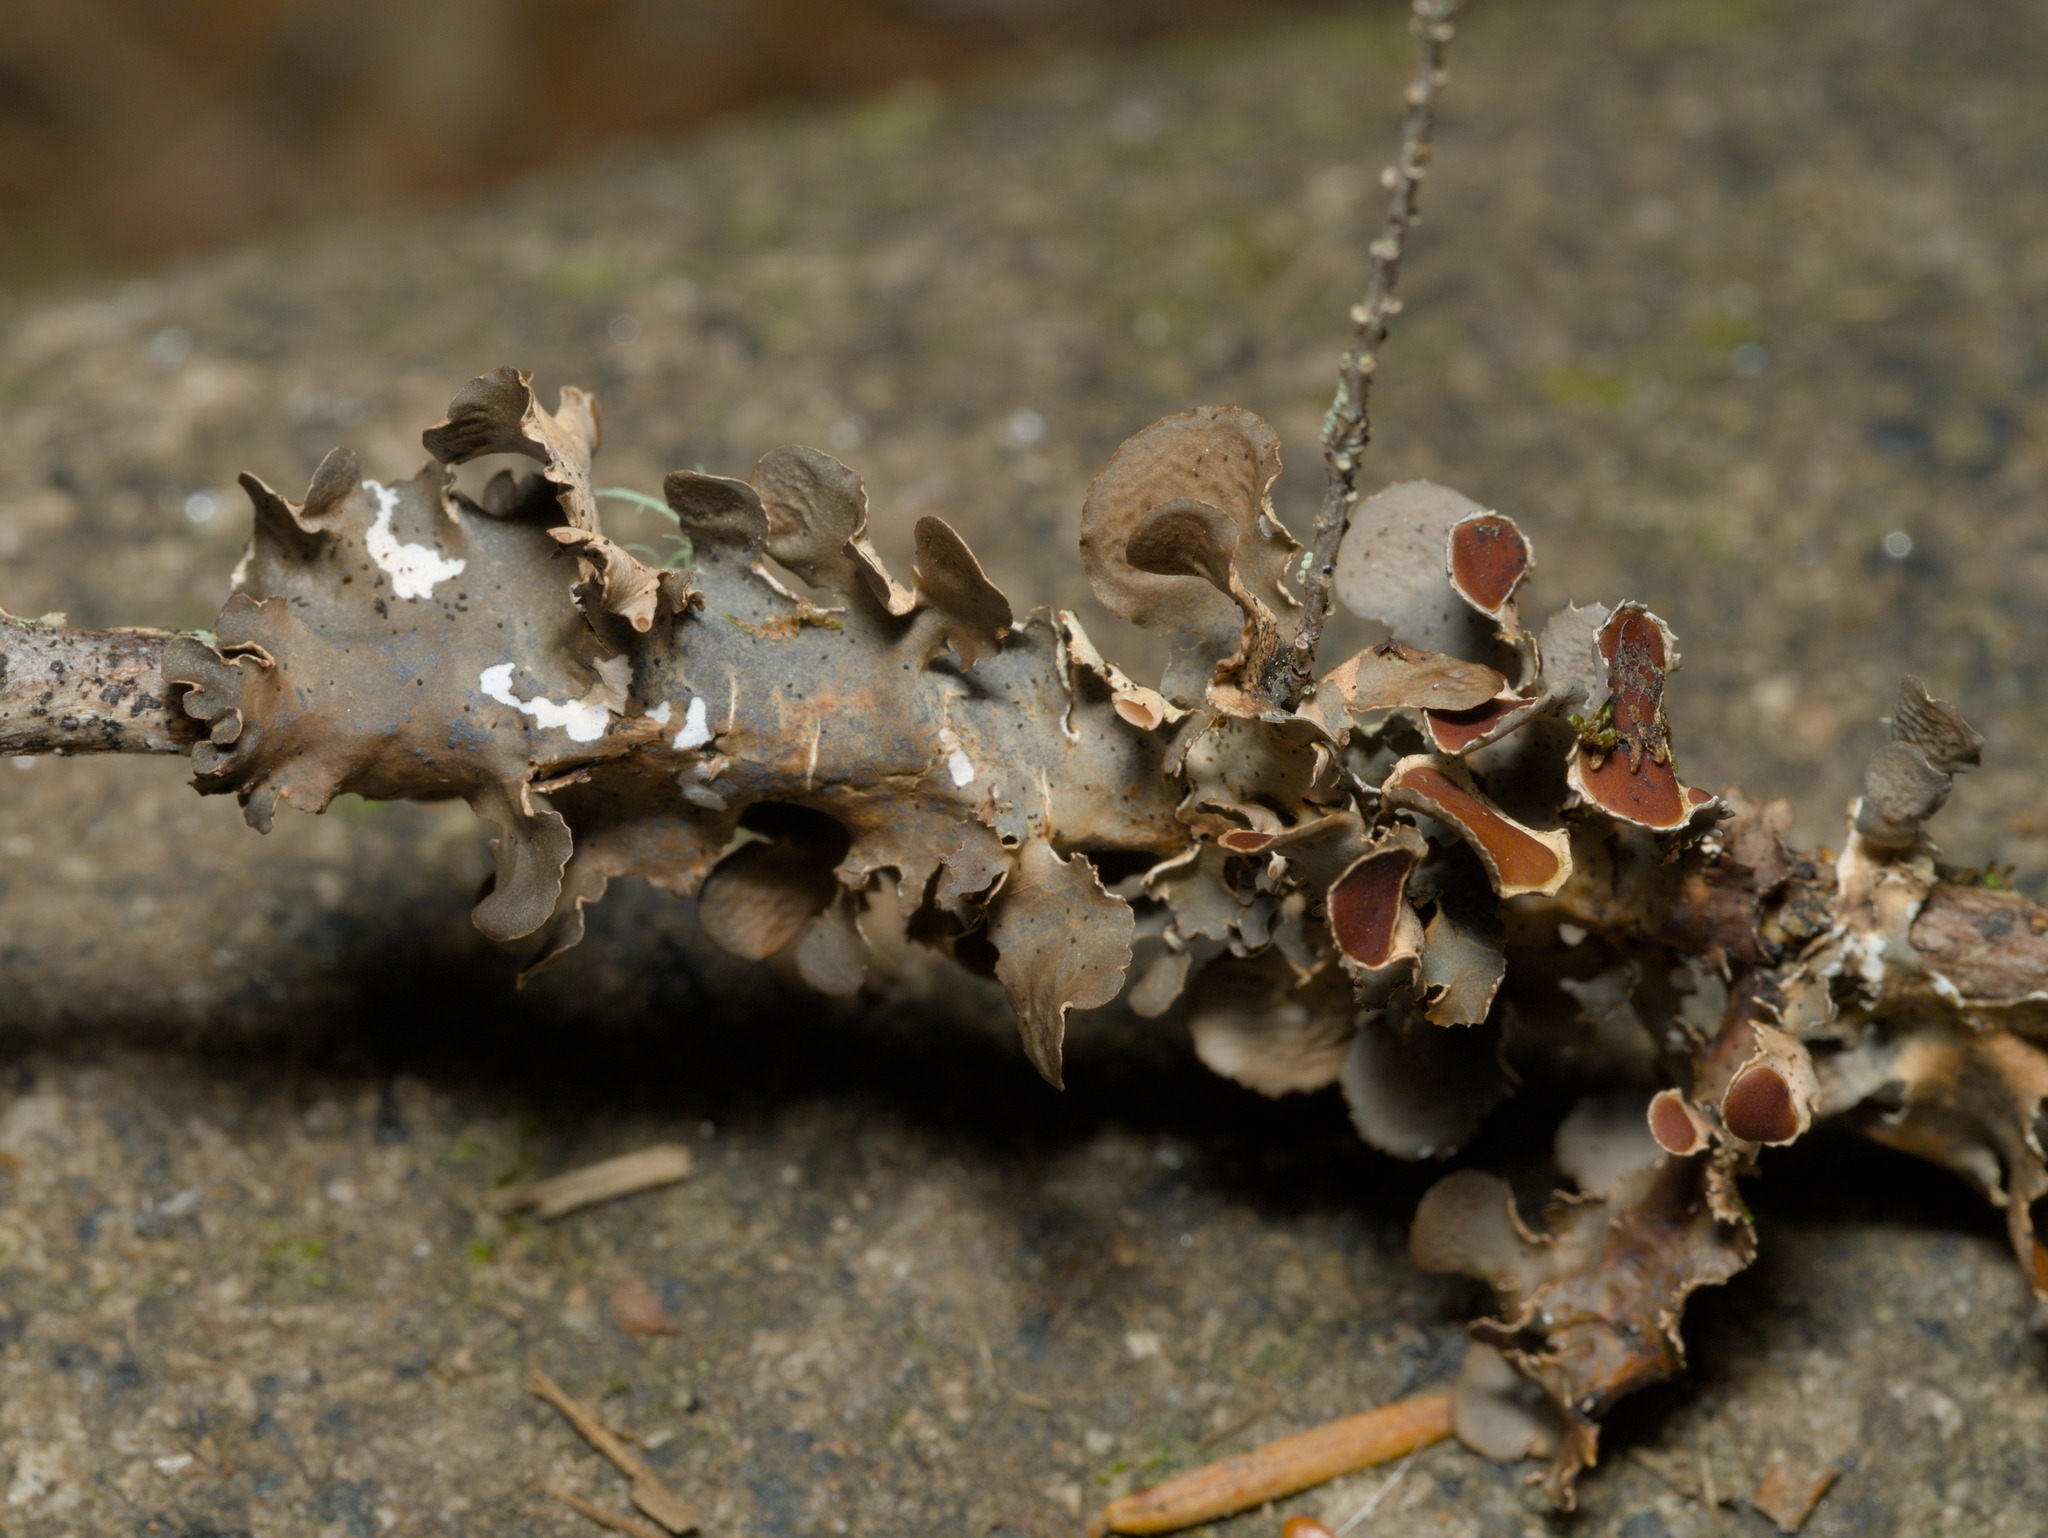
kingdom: Fungi
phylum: Ascomycota
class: Lecanoromycetes
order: Peltigerales
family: Nephromataceae
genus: Nephroma
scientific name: Nephroma helveticum
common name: Fringed kidney lichen
